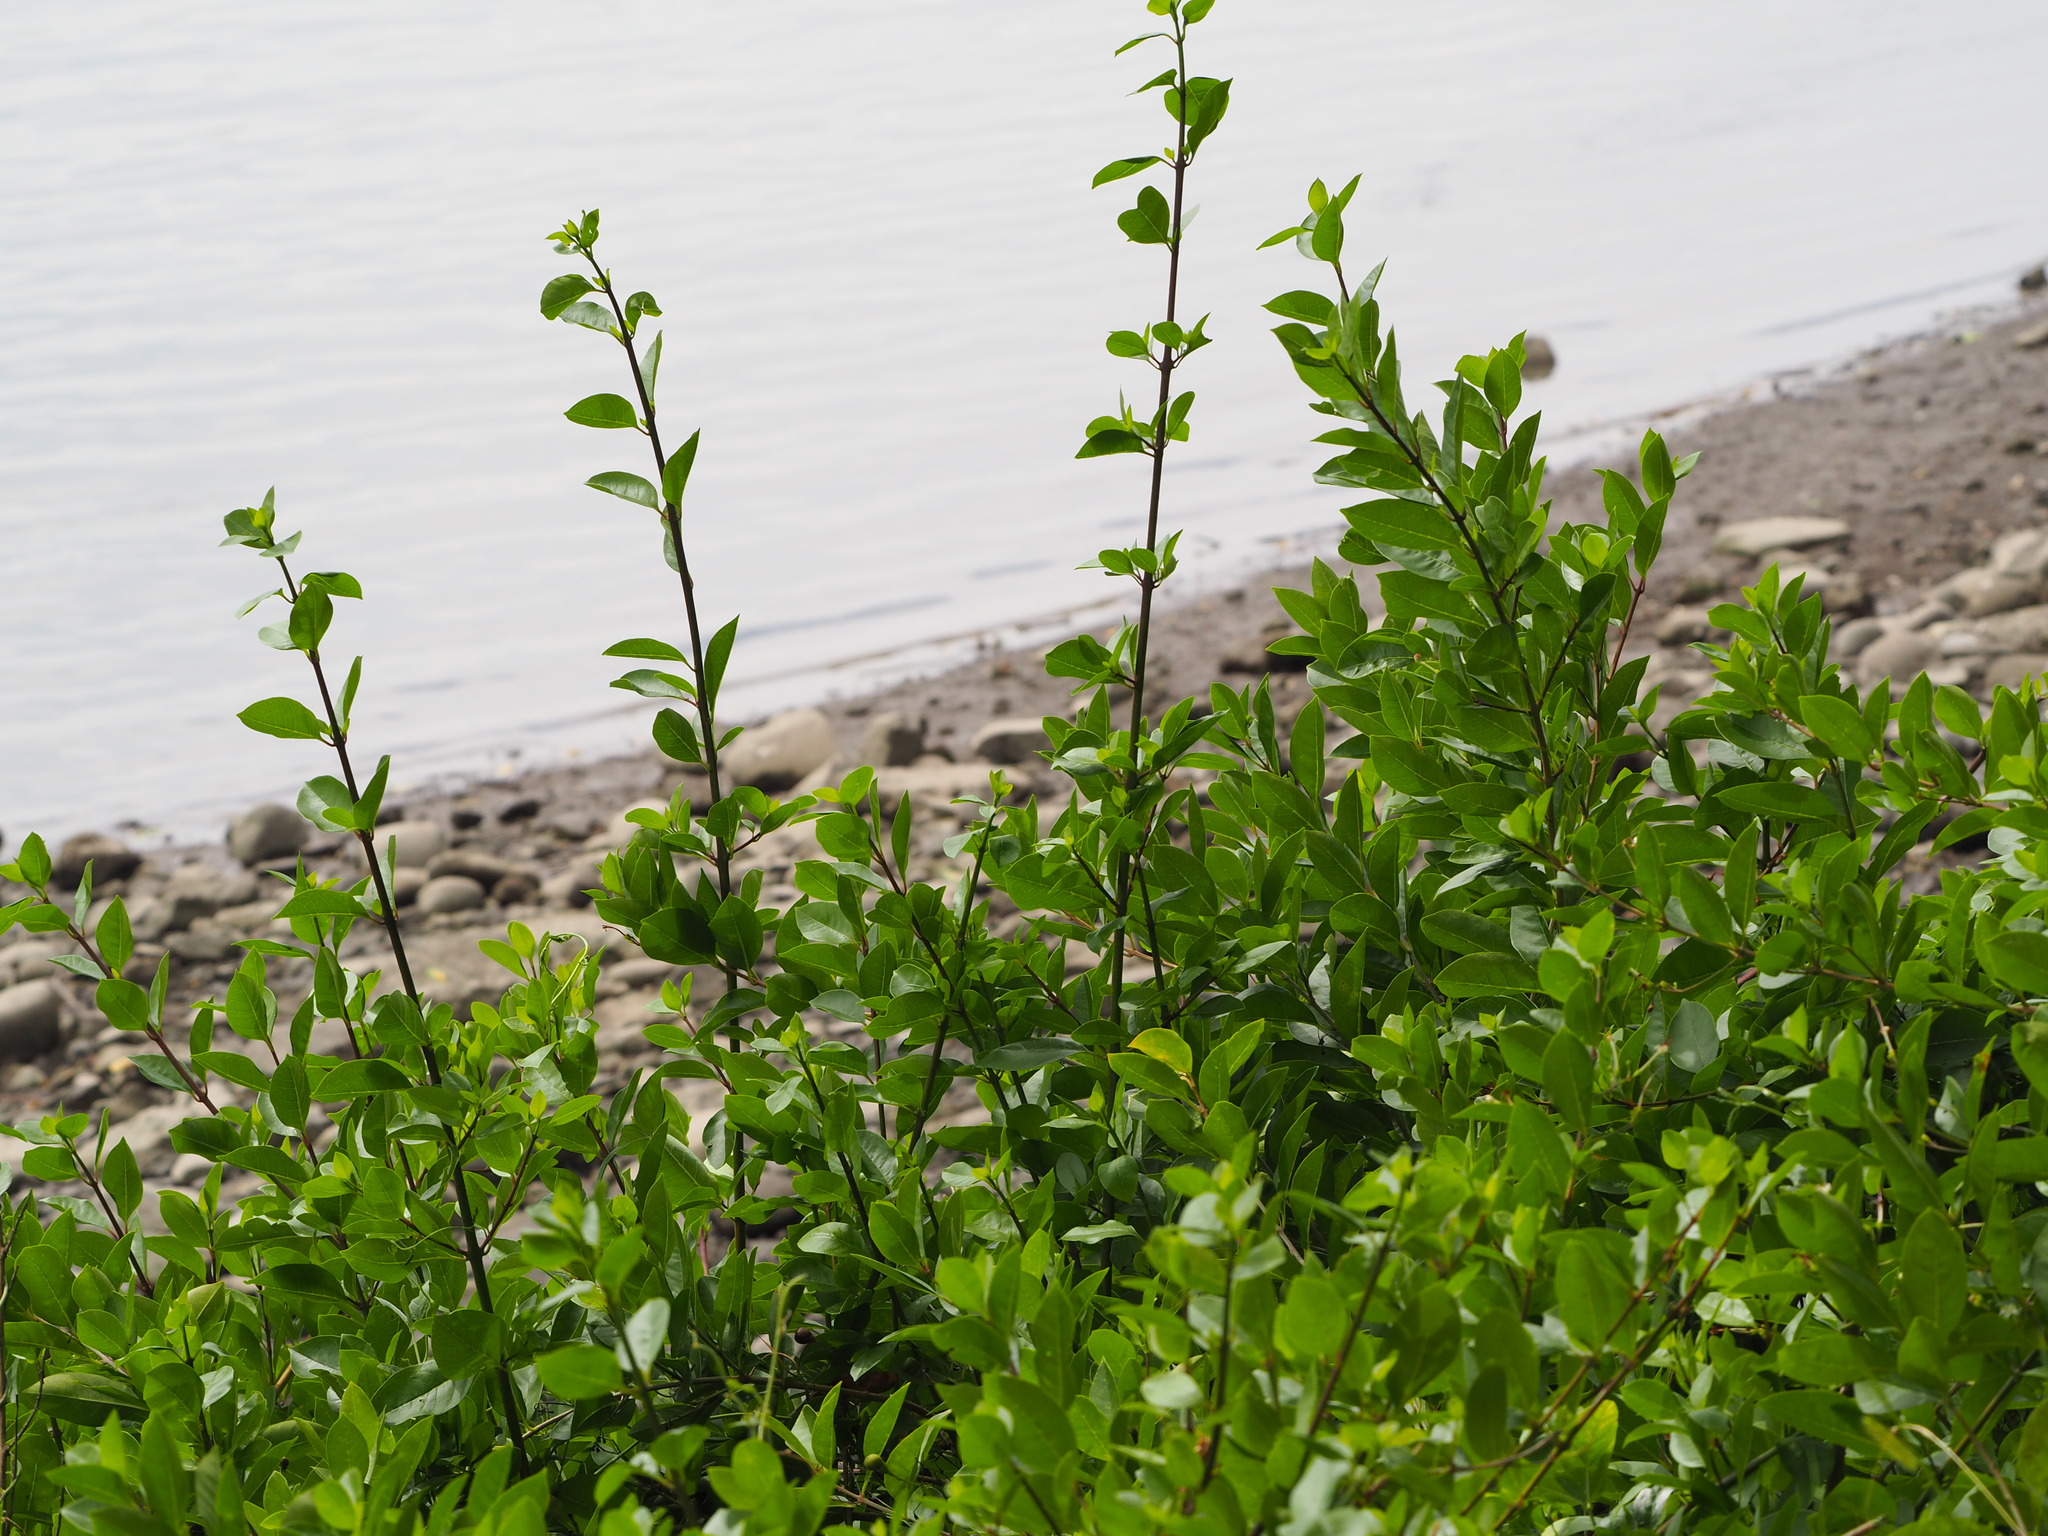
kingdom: Plantae
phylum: Tracheophyta
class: Magnoliopsida
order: Lamiales
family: Lamiaceae
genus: Volkameria
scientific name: Volkameria inermis
